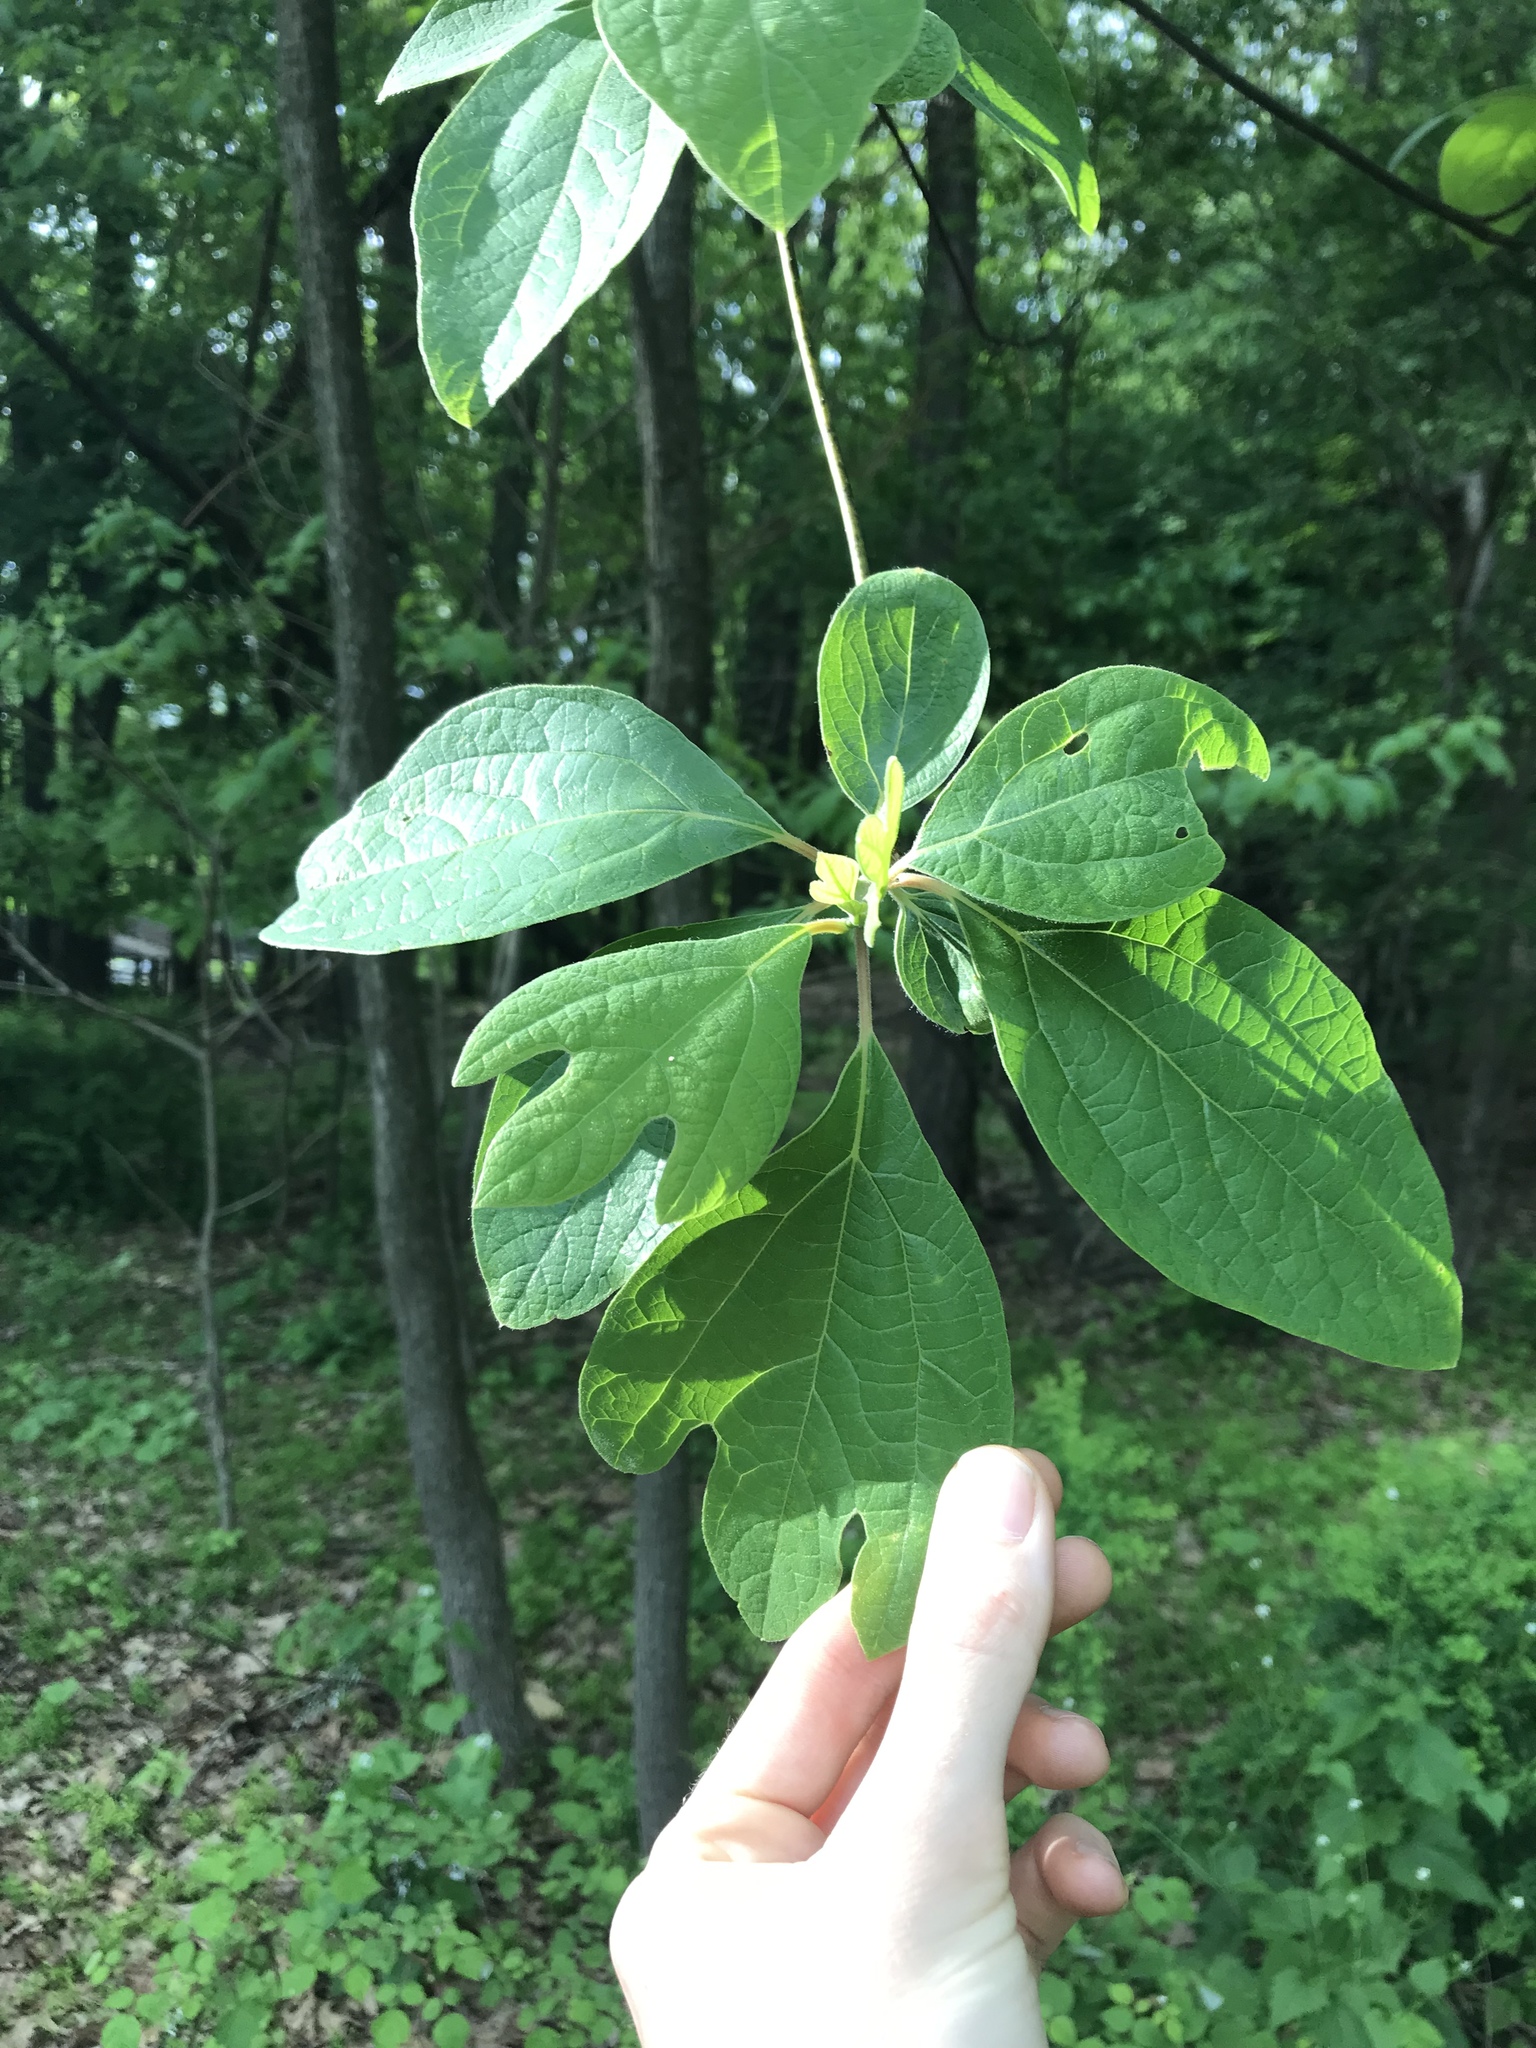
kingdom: Plantae
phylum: Tracheophyta
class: Magnoliopsida
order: Laurales
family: Lauraceae
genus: Sassafras
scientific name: Sassafras albidum
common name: Sassafras
